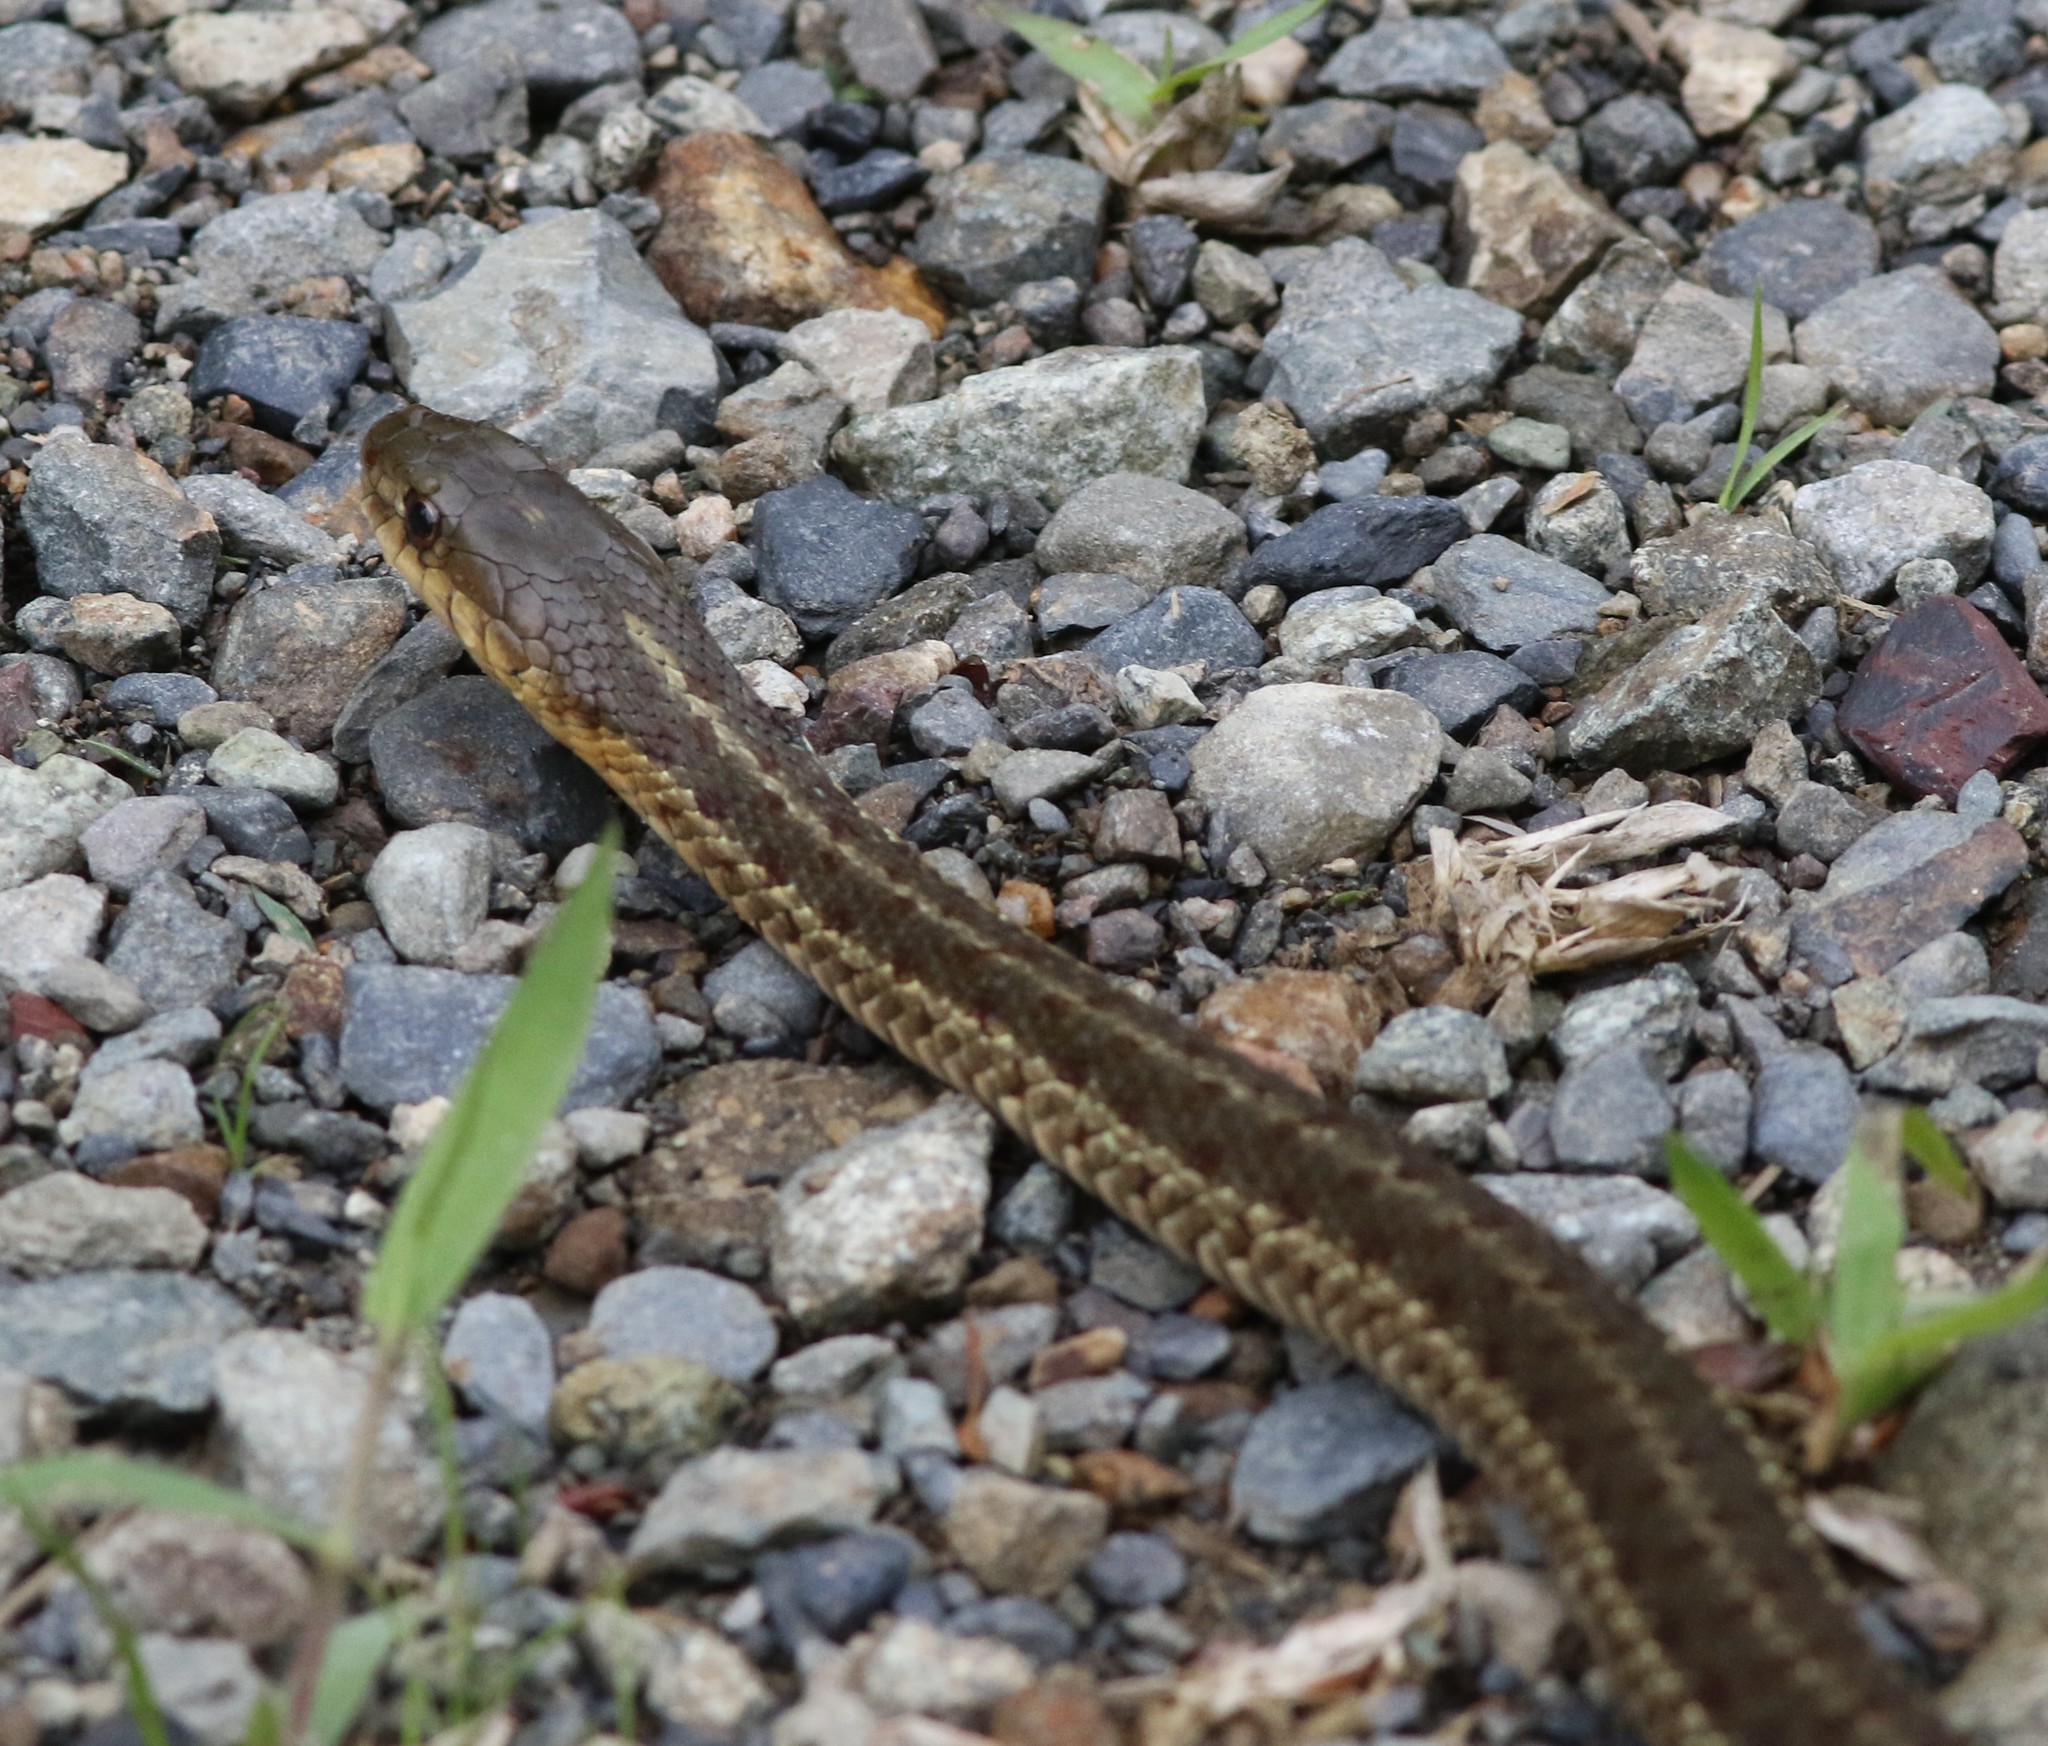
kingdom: Animalia
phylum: Chordata
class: Squamata
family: Colubridae
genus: Thamnophis
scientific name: Thamnophis sirtalis
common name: Common garter snake
